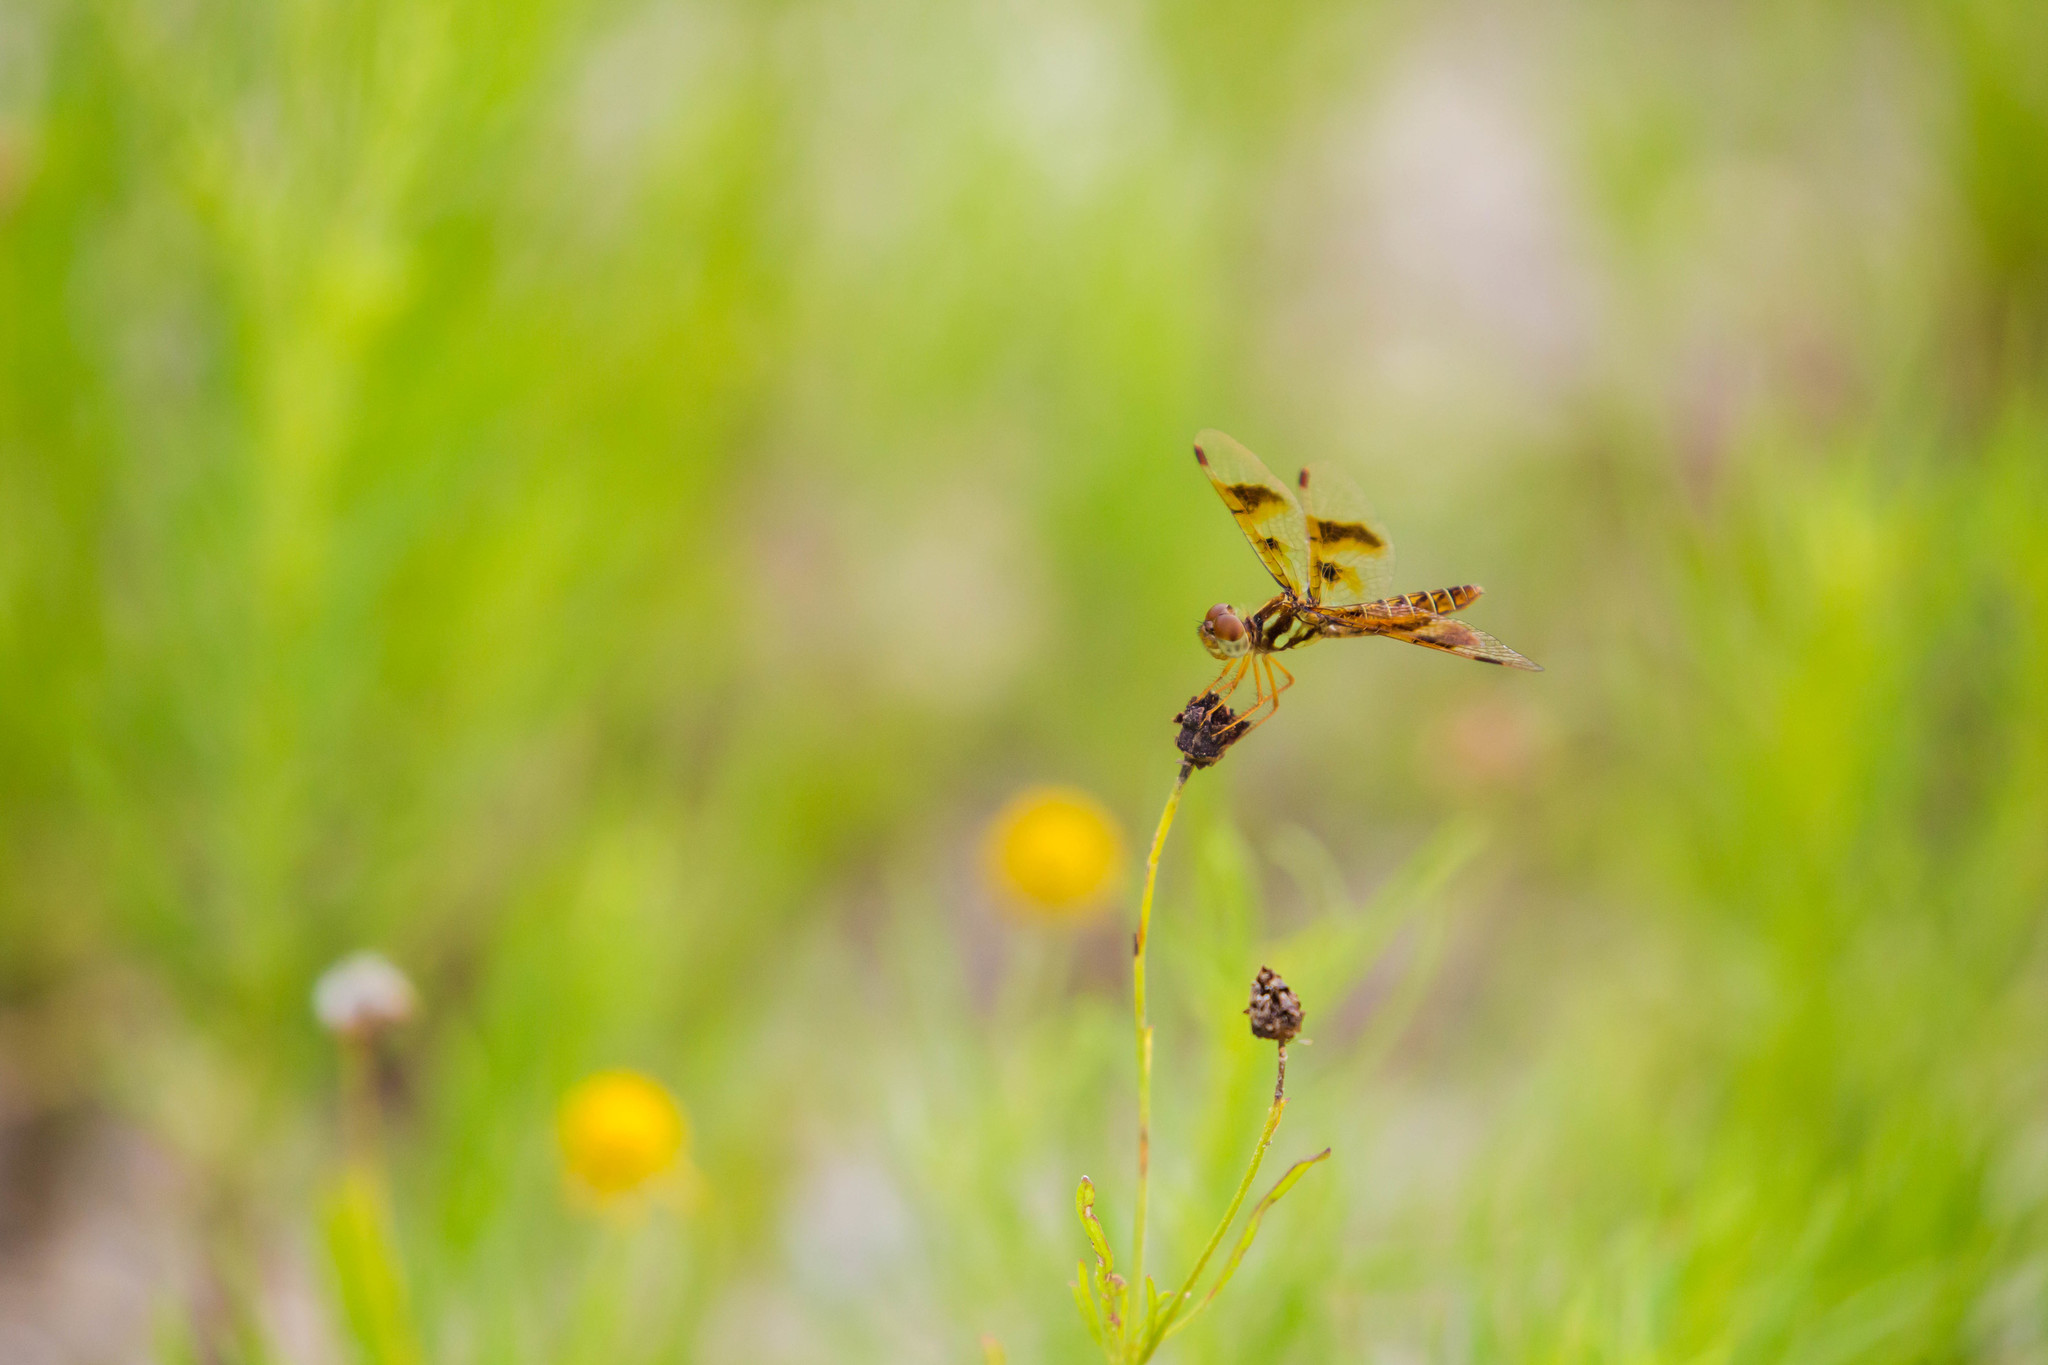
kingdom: Animalia
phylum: Arthropoda
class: Insecta
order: Odonata
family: Libellulidae
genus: Perithemis
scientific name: Perithemis tenera
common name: Eastern amberwing
